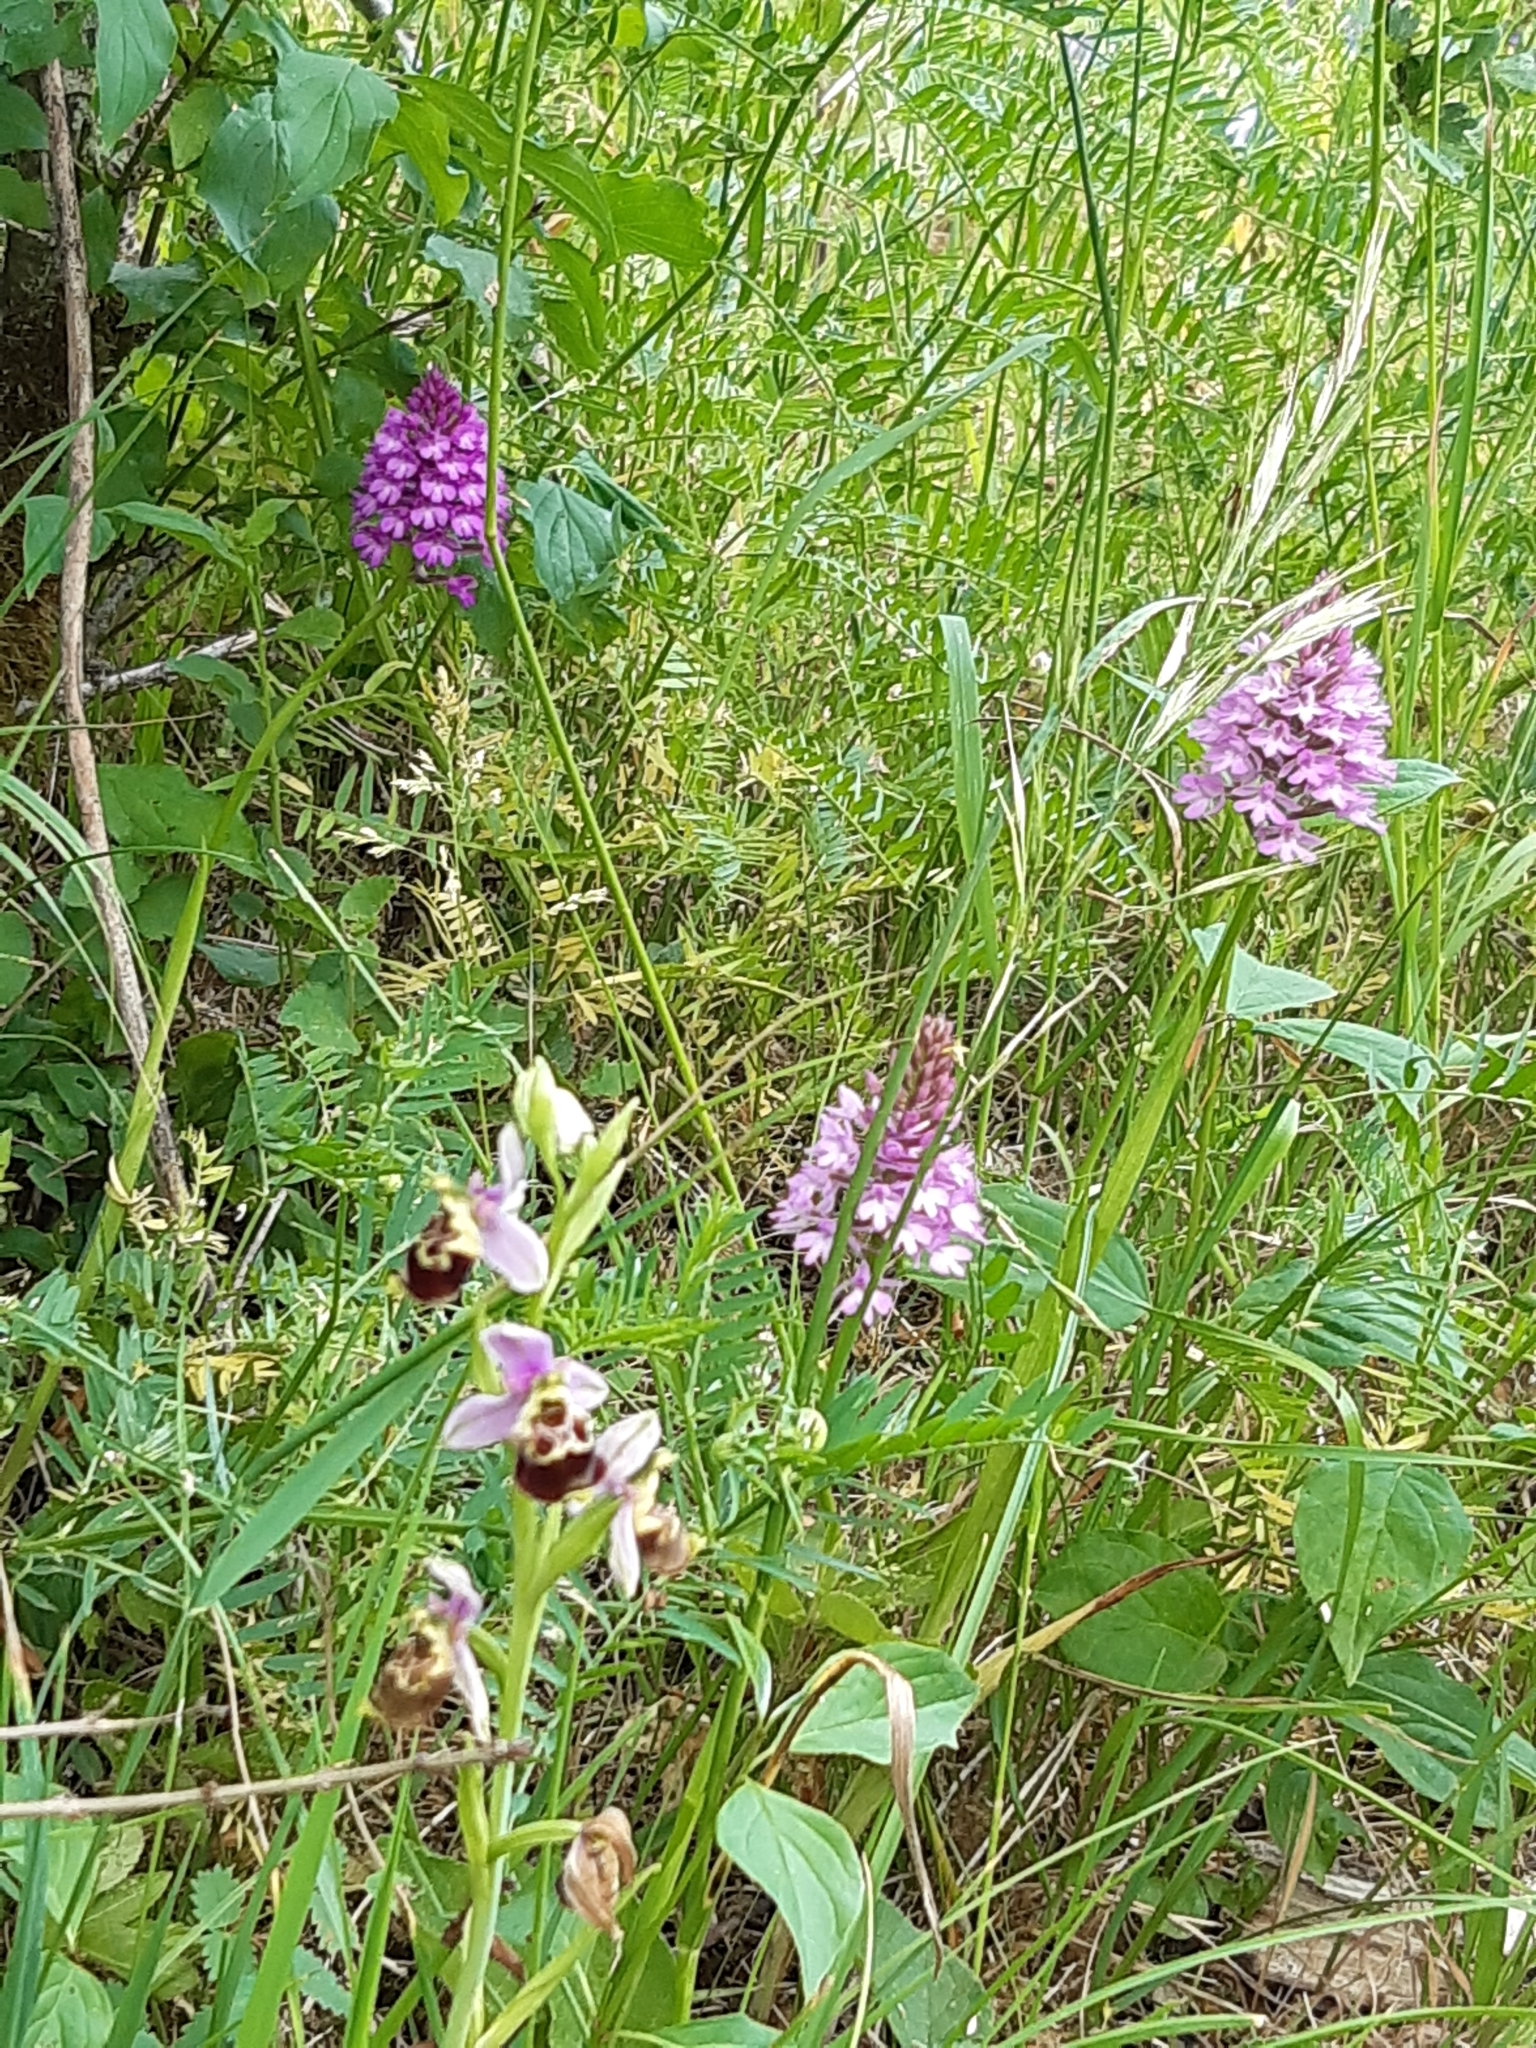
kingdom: Plantae
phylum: Tracheophyta
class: Liliopsida
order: Asparagales
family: Orchidaceae
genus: Ophrys
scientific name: Ophrys holosericea
